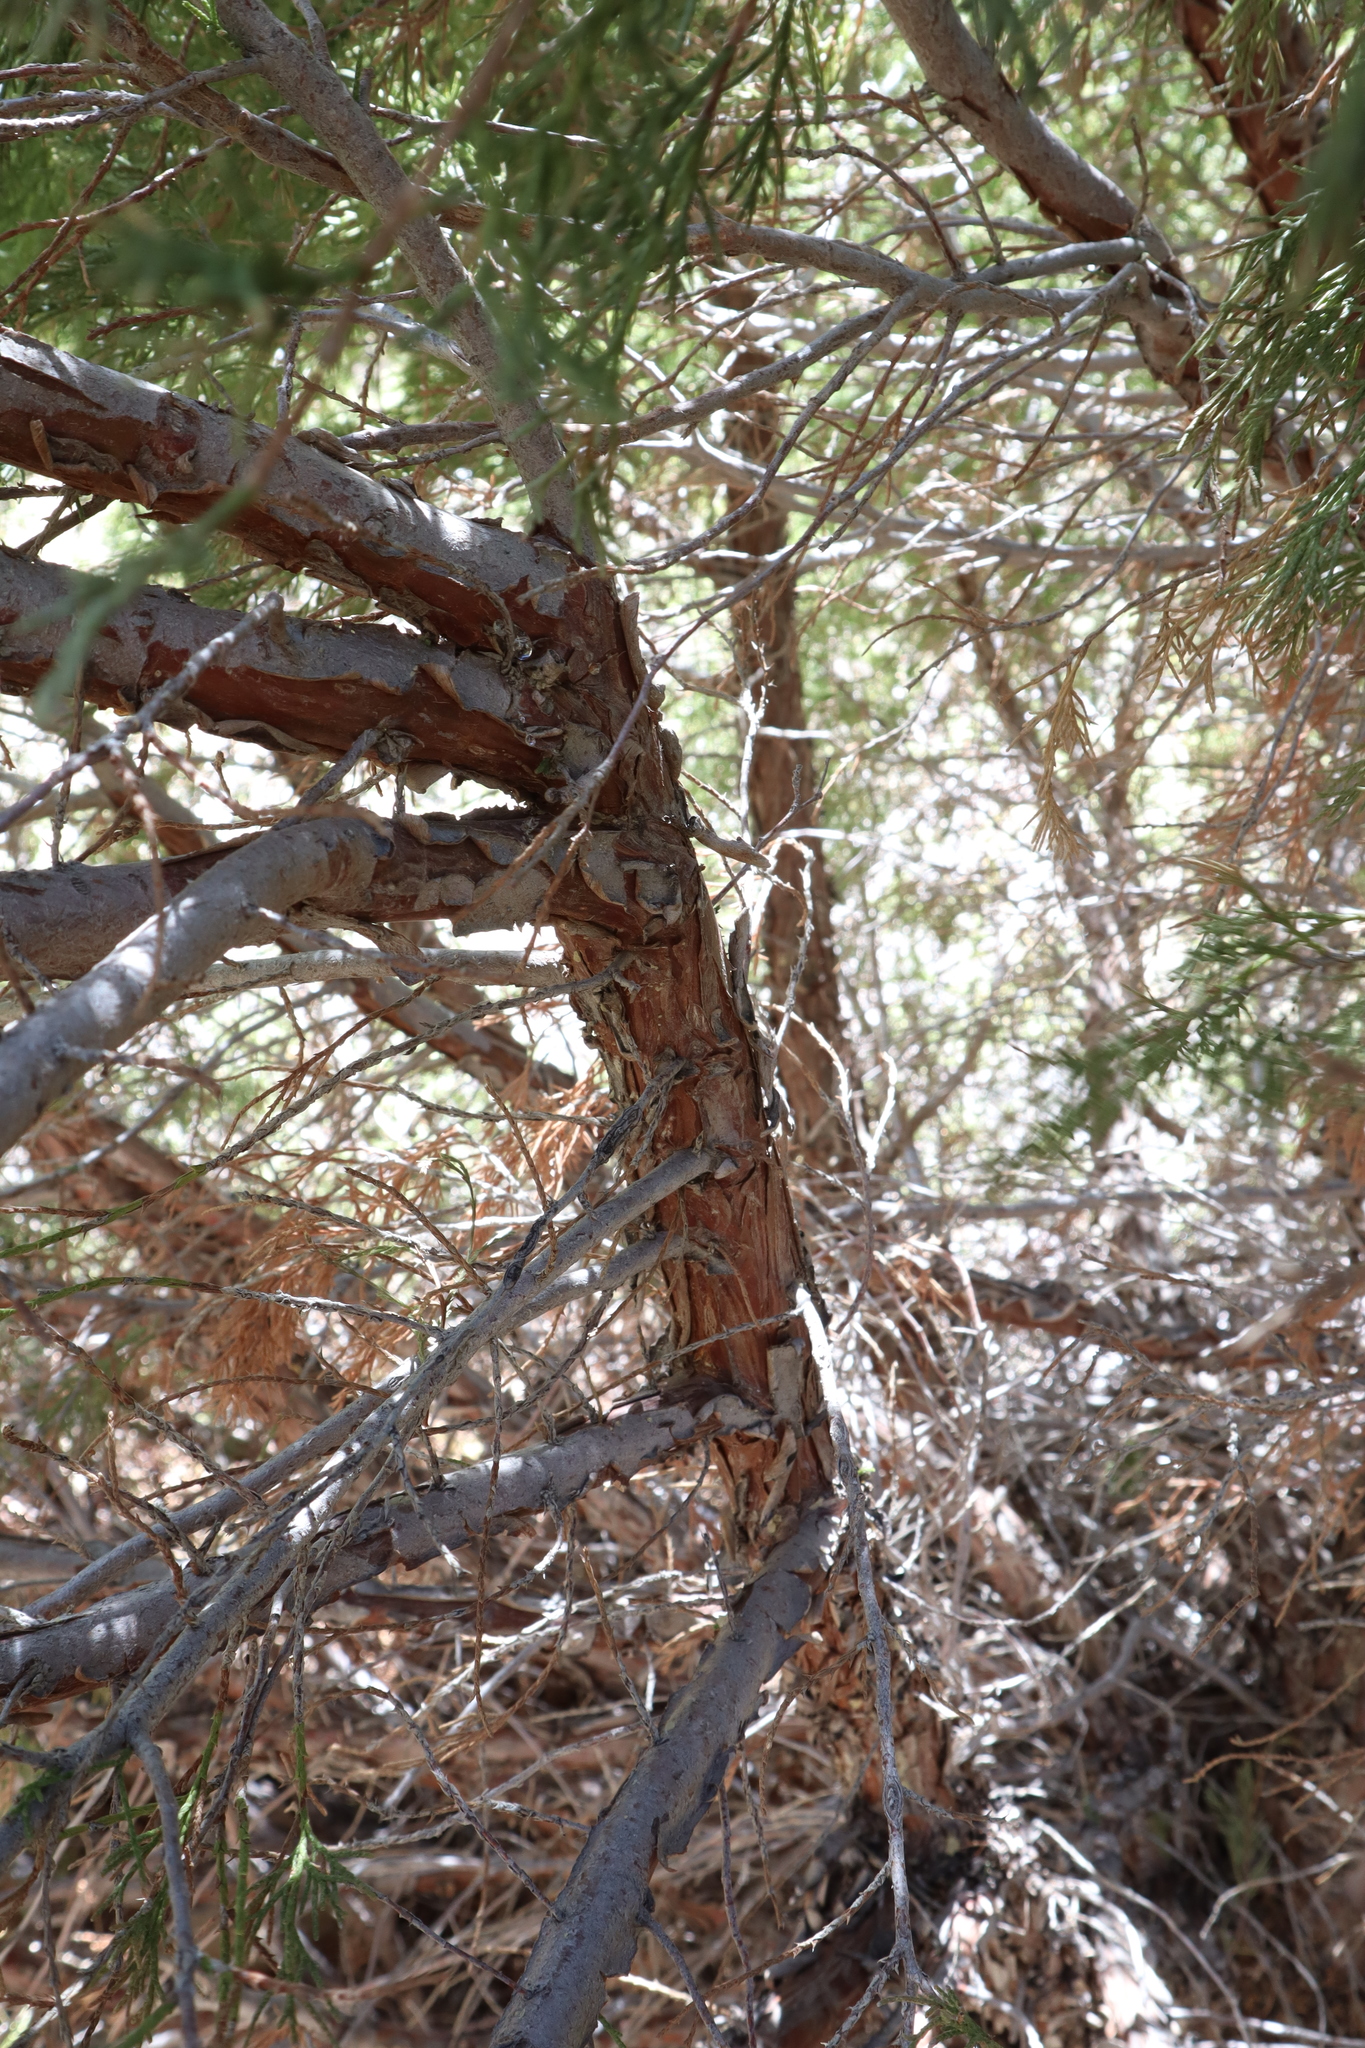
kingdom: Plantae
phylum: Tracheophyta
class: Pinopsida
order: Pinales
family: Cupressaceae
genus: Juniperus
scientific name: Juniperus scopulorum
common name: Rocky mountain juniper
